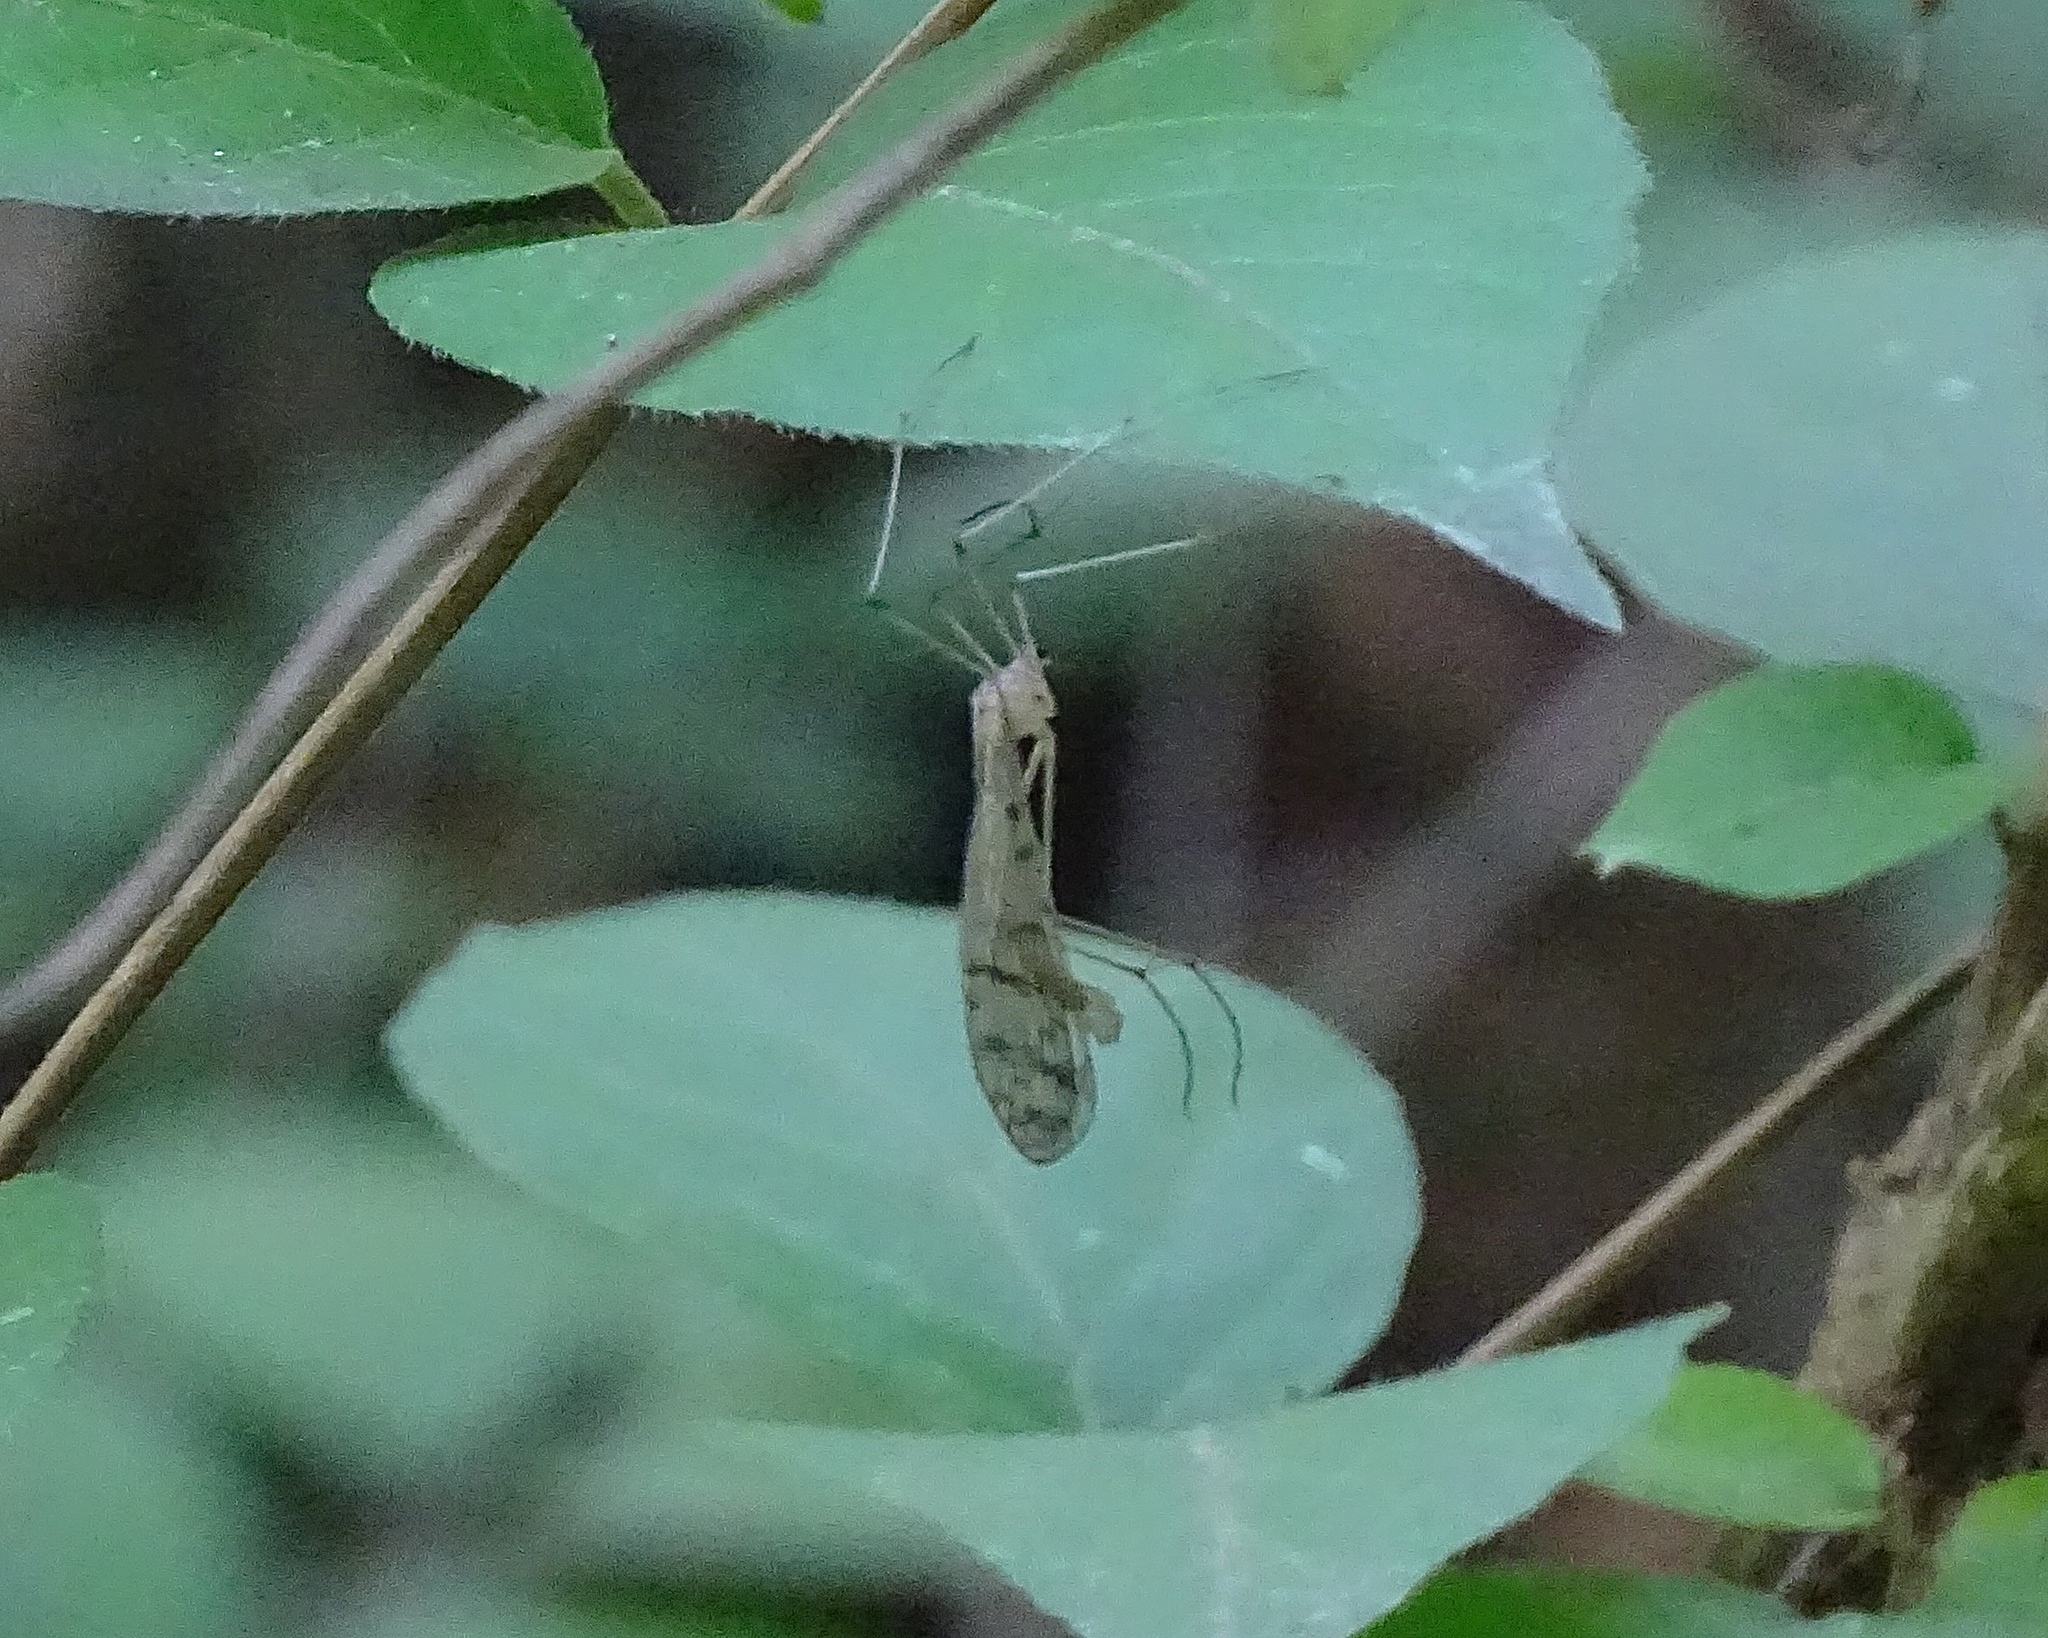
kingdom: Animalia
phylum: Arthropoda
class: Insecta
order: Mecoptera
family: Bittacidae
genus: Bittacus
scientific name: Bittacus strigosus
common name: Thin hangingfly
